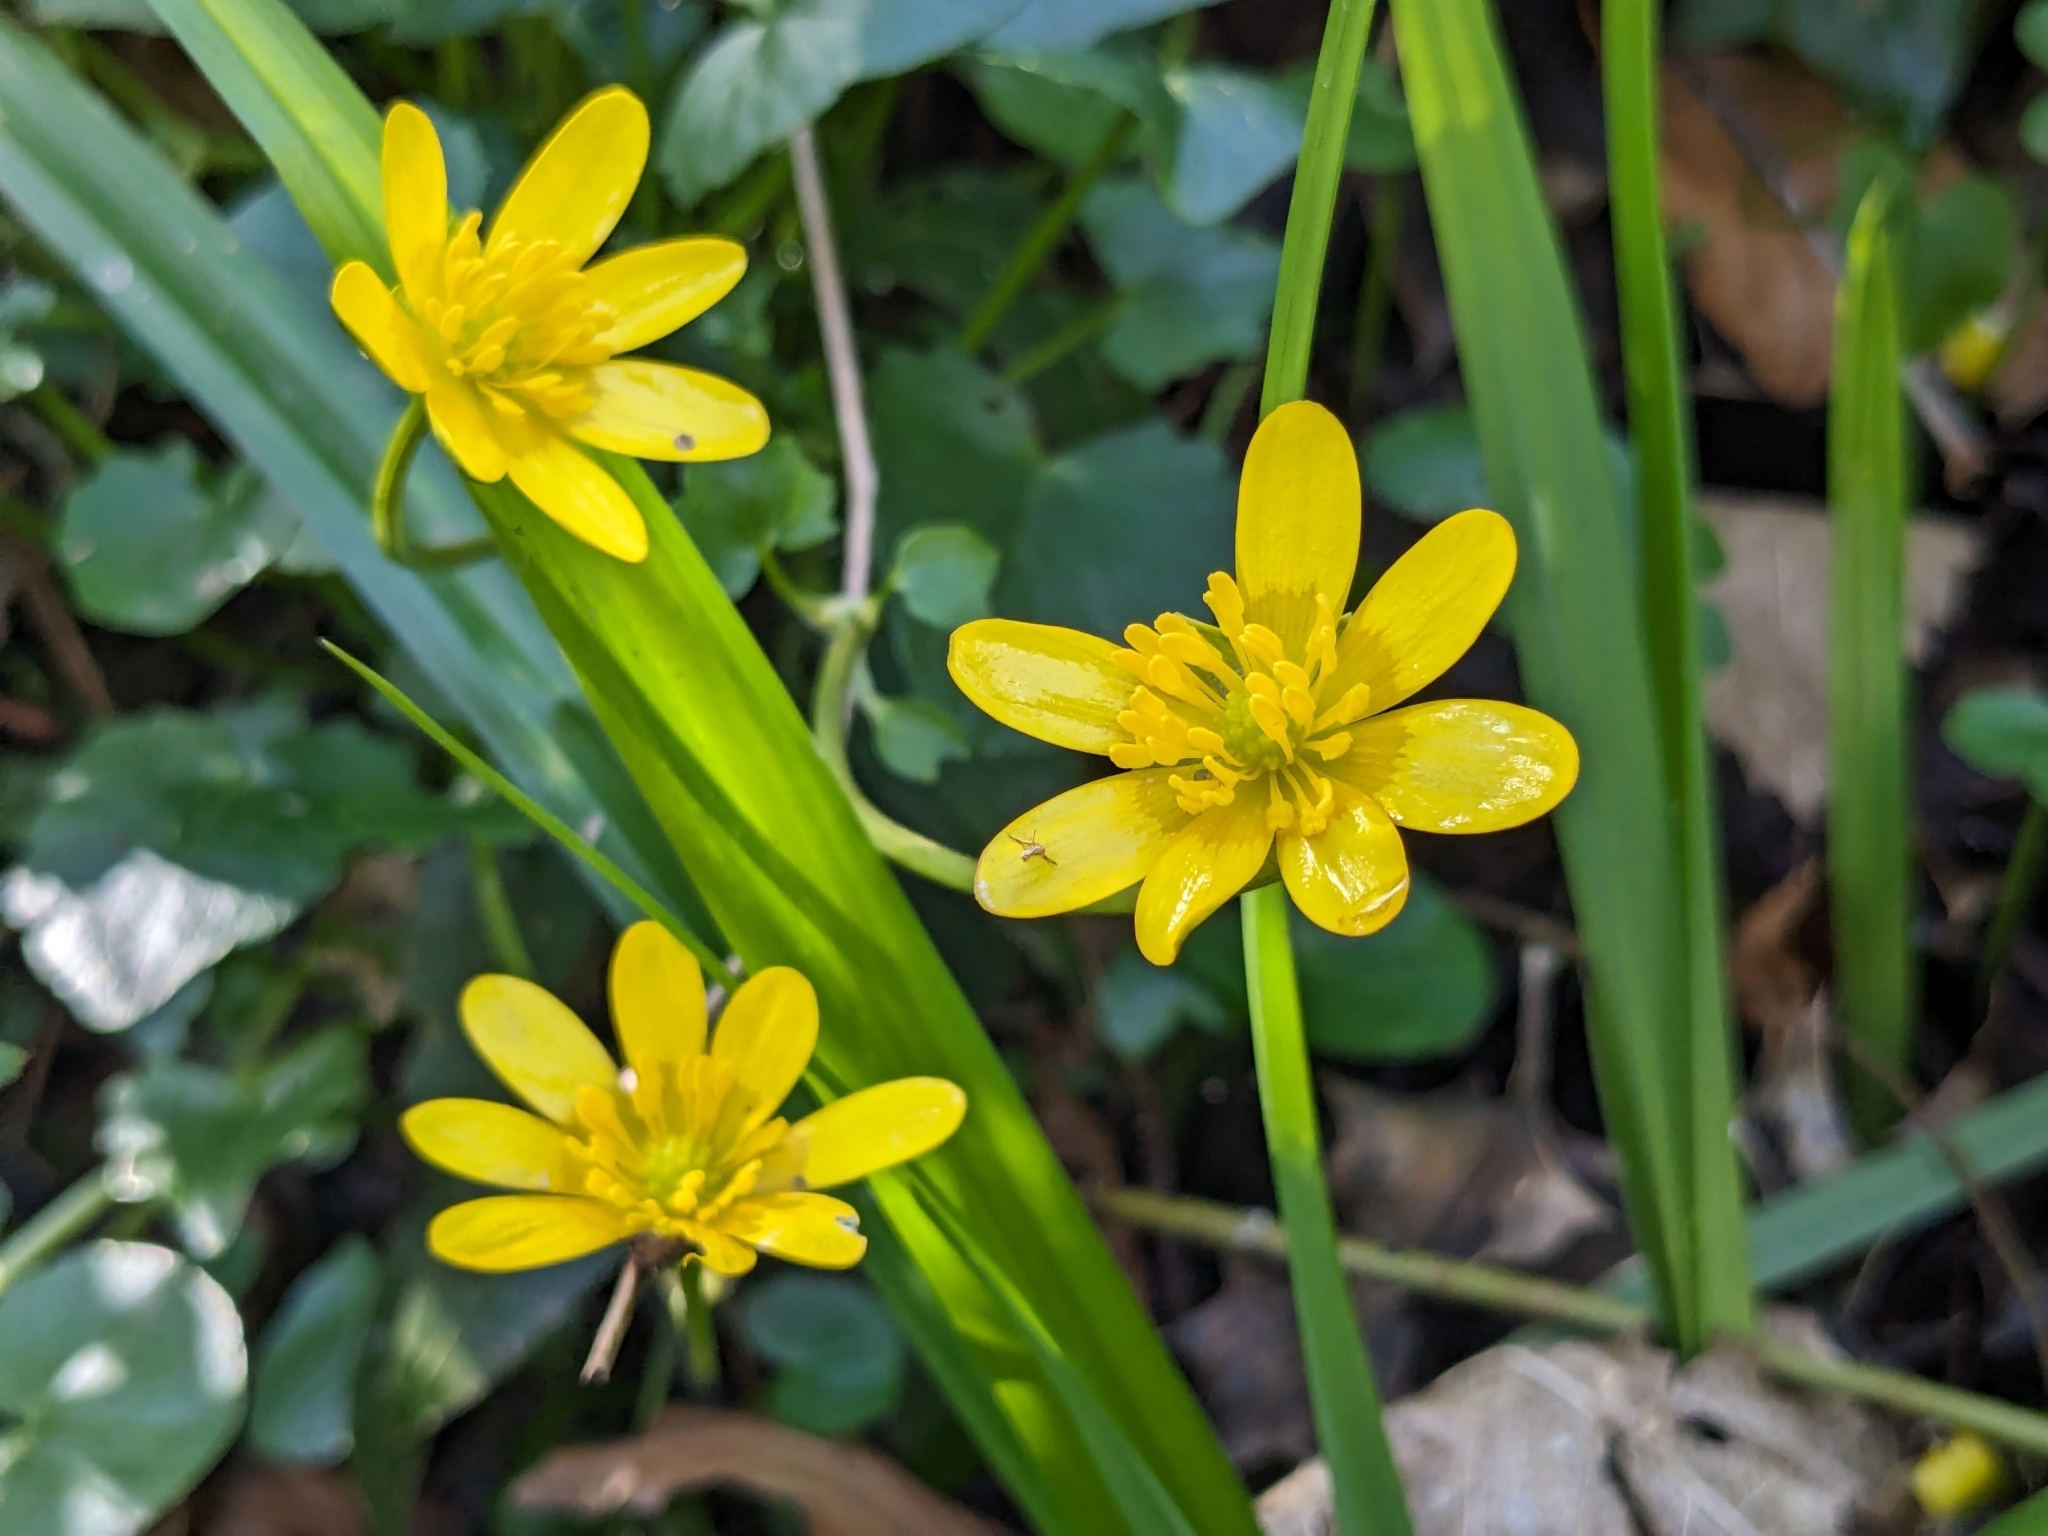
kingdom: Plantae
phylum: Tracheophyta
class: Magnoliopsida
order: Ranunculales
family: Ranunculaceae
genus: Ficaria
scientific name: Ficaria verna
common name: Lesser celandine
